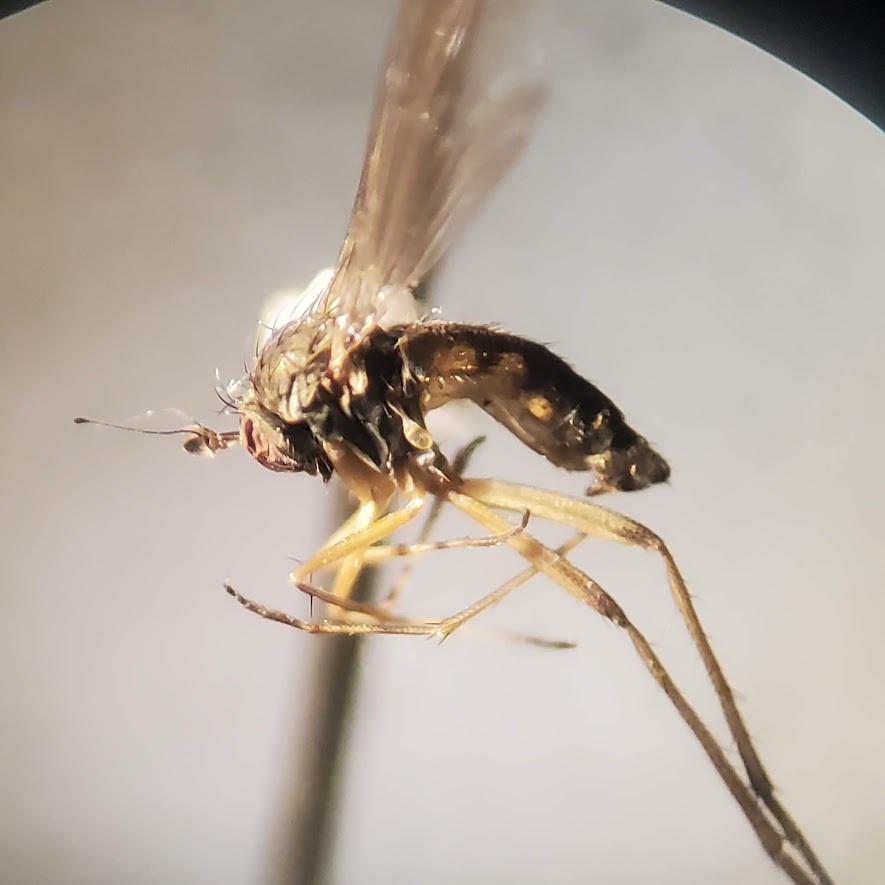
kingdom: Animalia
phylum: Arthropoda
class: Insecta
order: Diptera
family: Dolichopodidae
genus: Calyxochaetus
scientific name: Calyxochaetus
